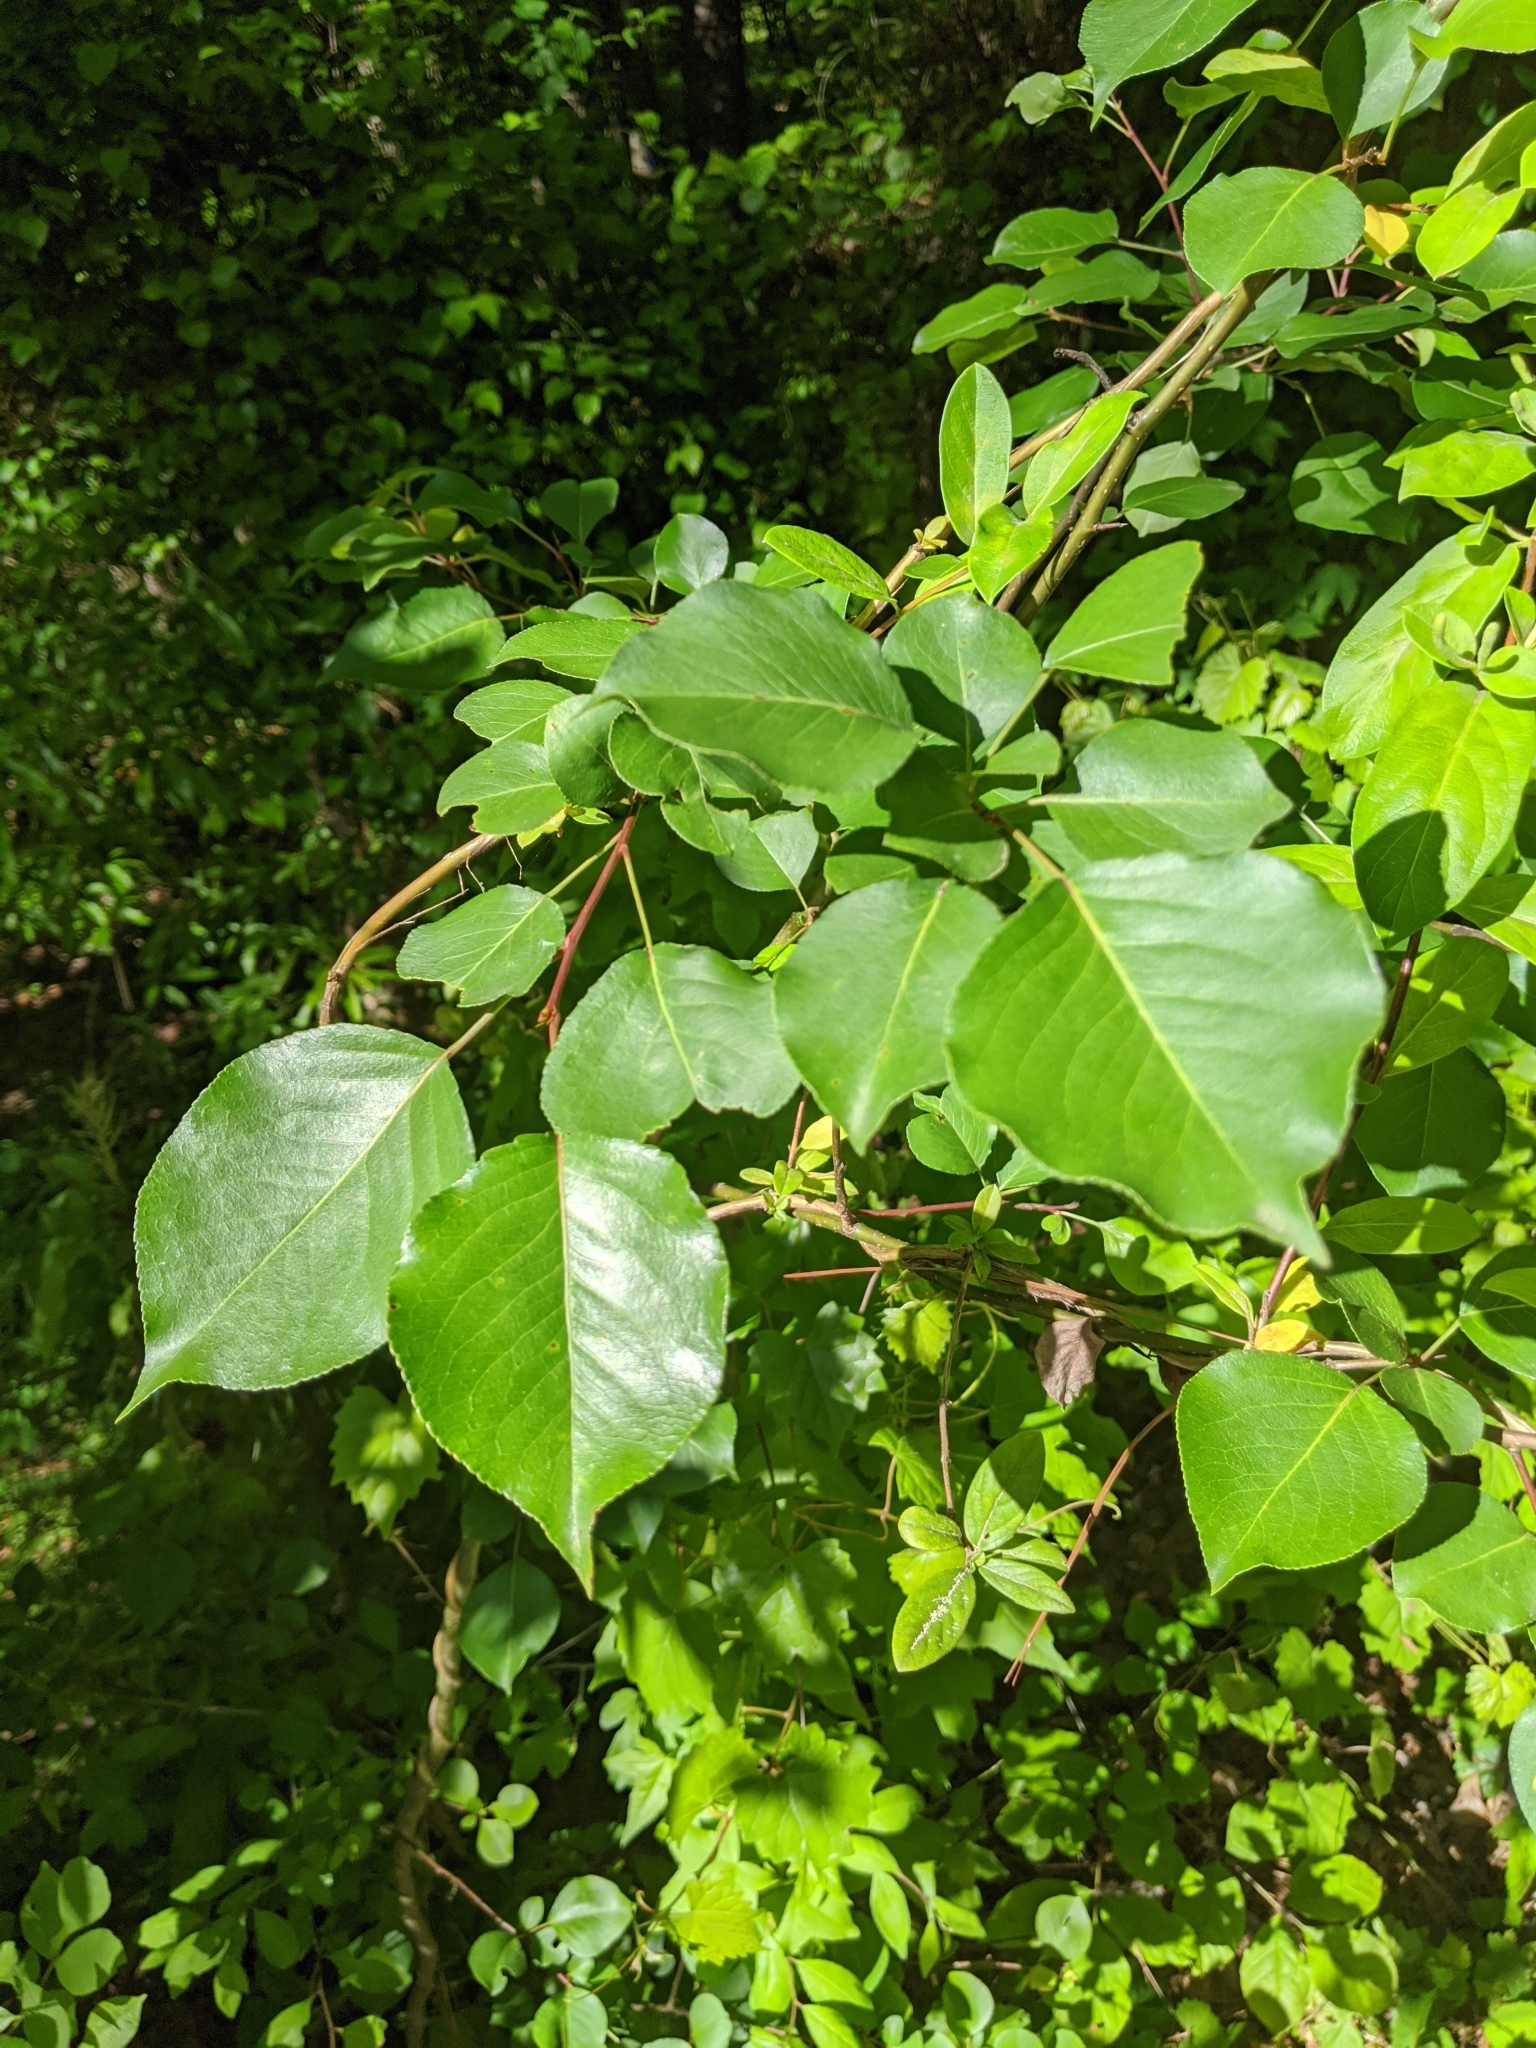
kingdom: Plantae
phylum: Tracheophyta
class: Magnoliopsida
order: Rosales
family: Rosaceae
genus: Pyrus
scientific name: Pyrus calleryana
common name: Callery pear
